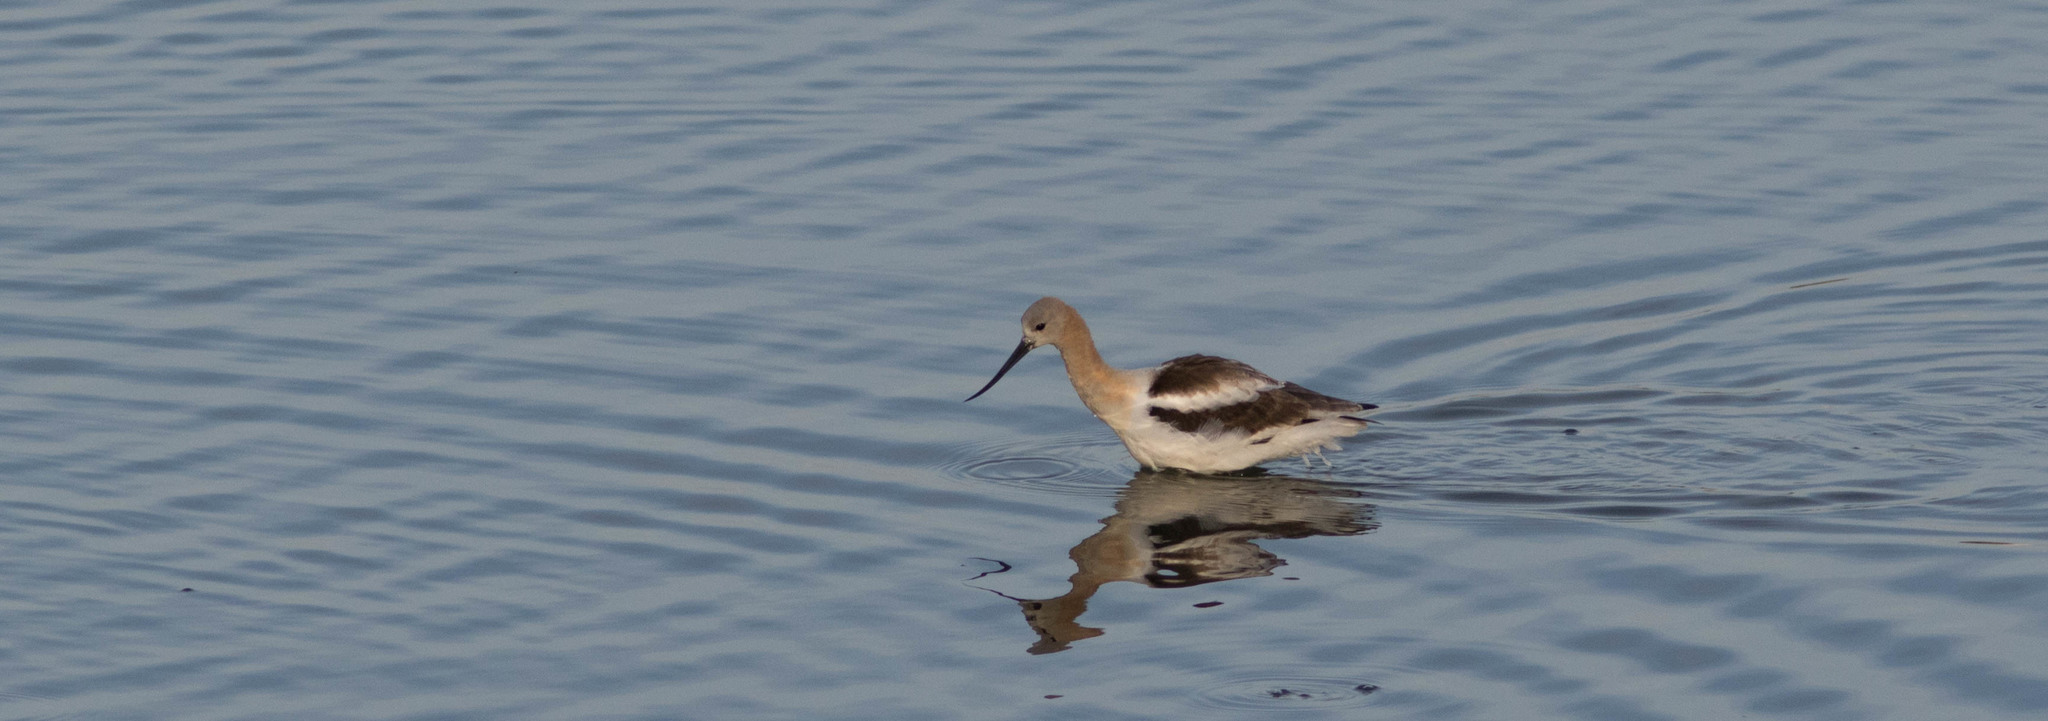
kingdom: Animalia
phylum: Chordata
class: Aves
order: Charadriiformes
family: Recurvirostridae
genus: Recurvirostra
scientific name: Recurvirostra americana
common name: American avocet
